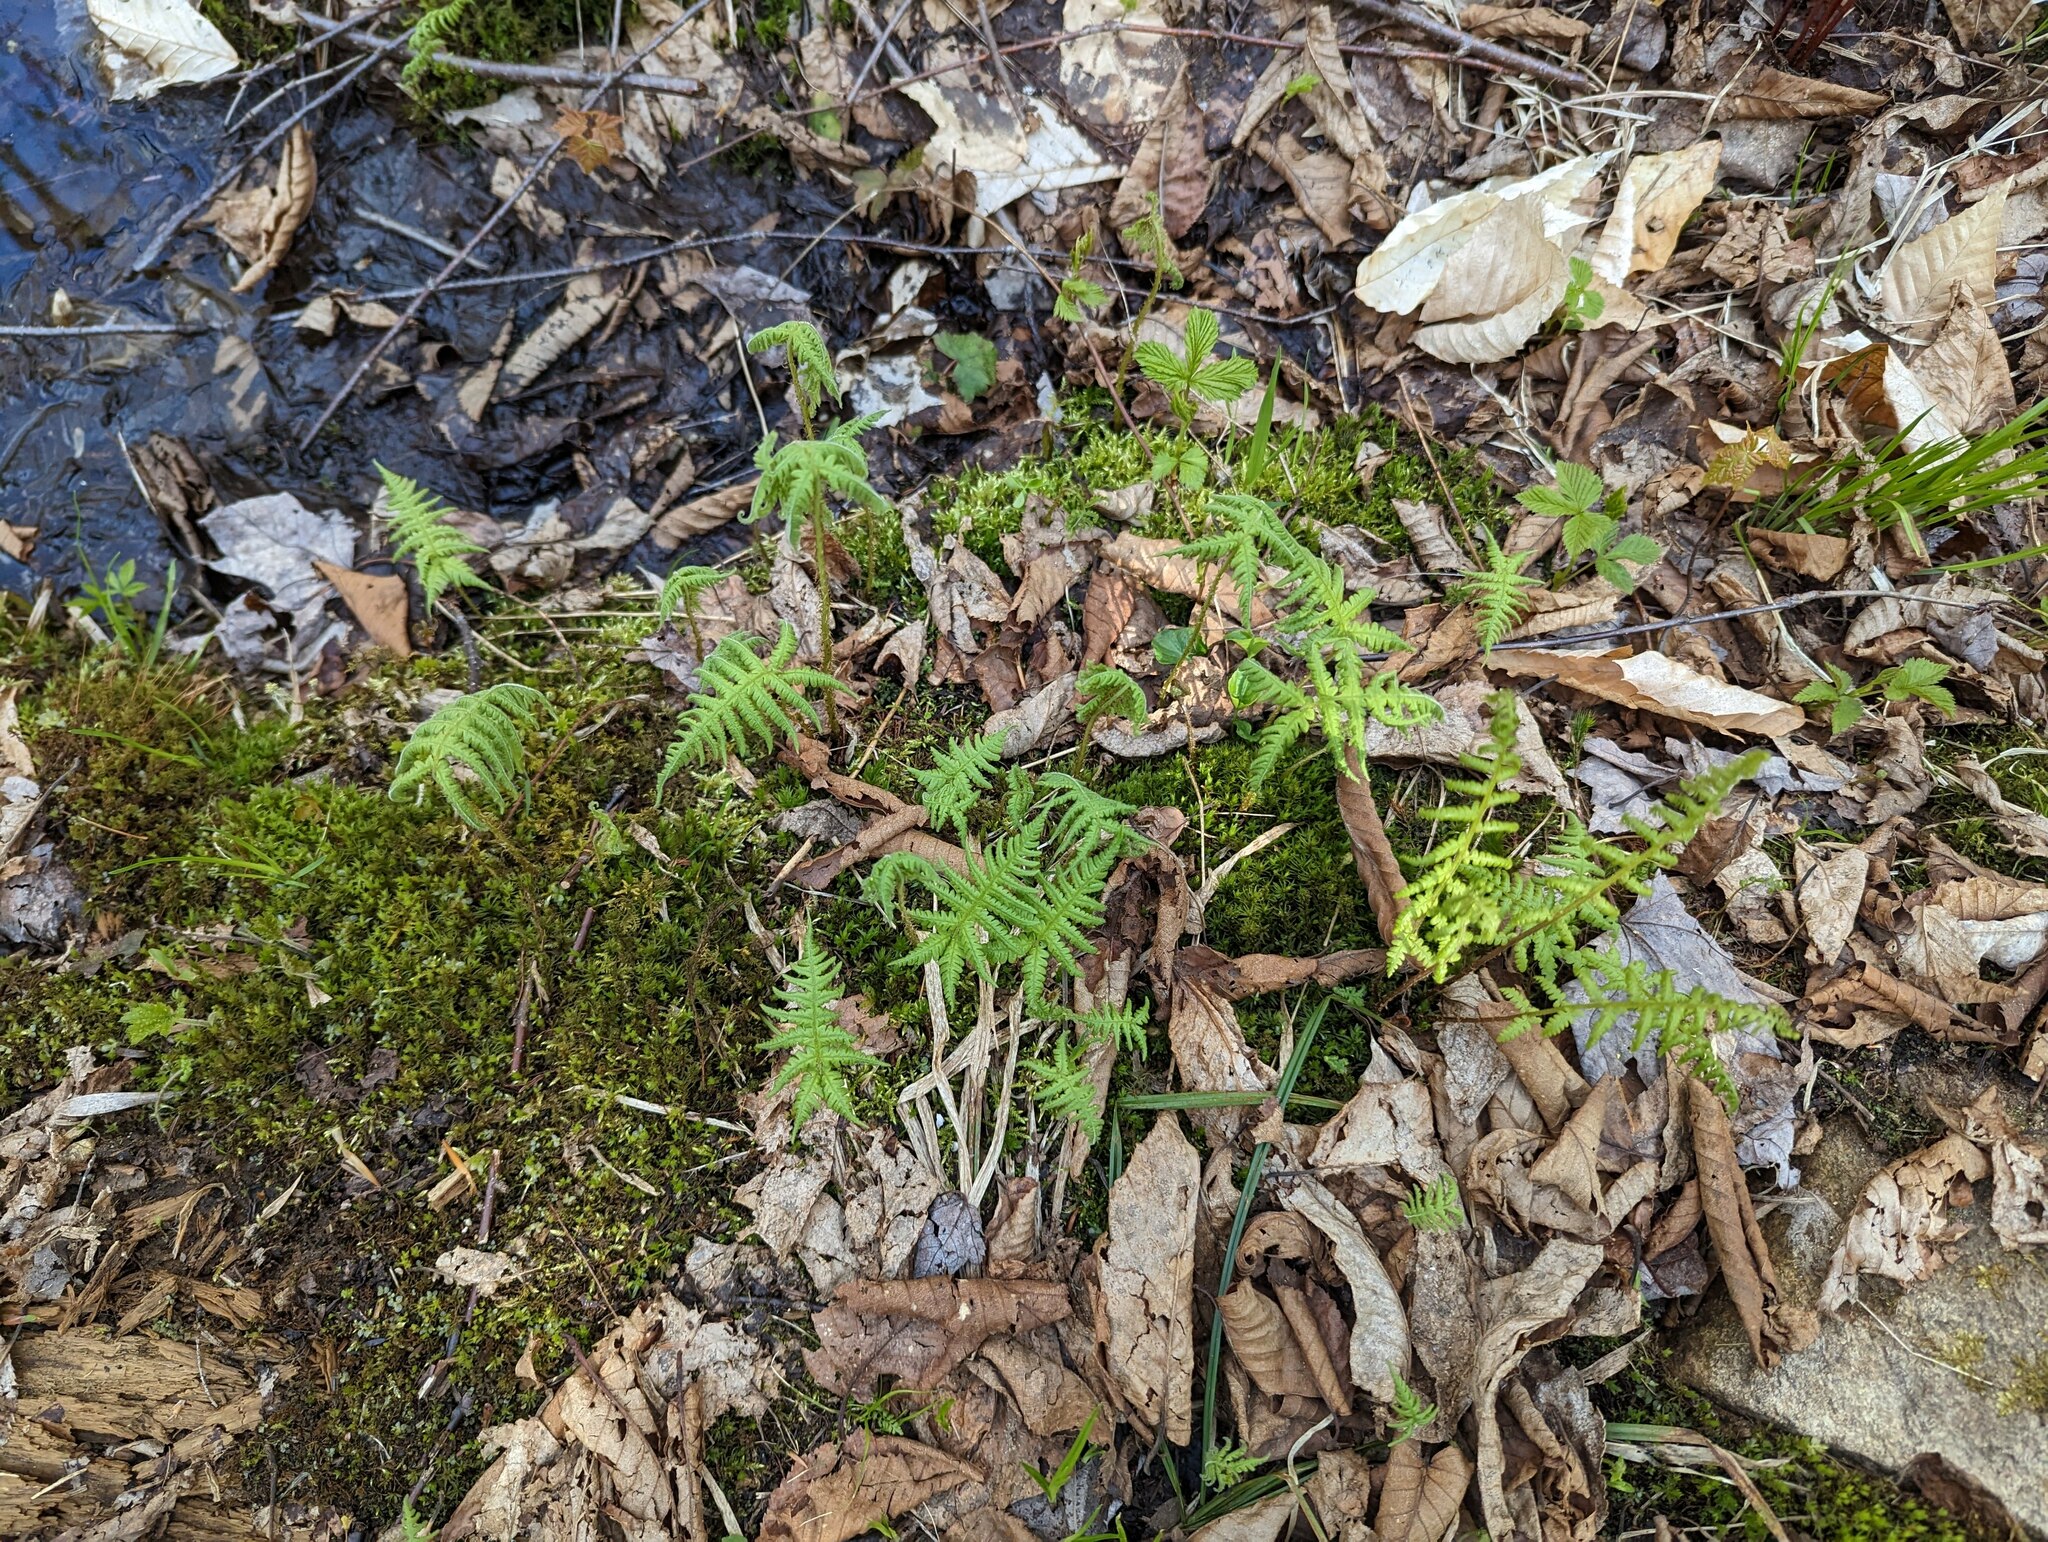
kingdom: Plantae
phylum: Tracheophyta
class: Polypodiopsida
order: Polypodiales
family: Thelypteridaceae
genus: Phegopteris
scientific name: Phegopteris connectilis
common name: Beech fern
